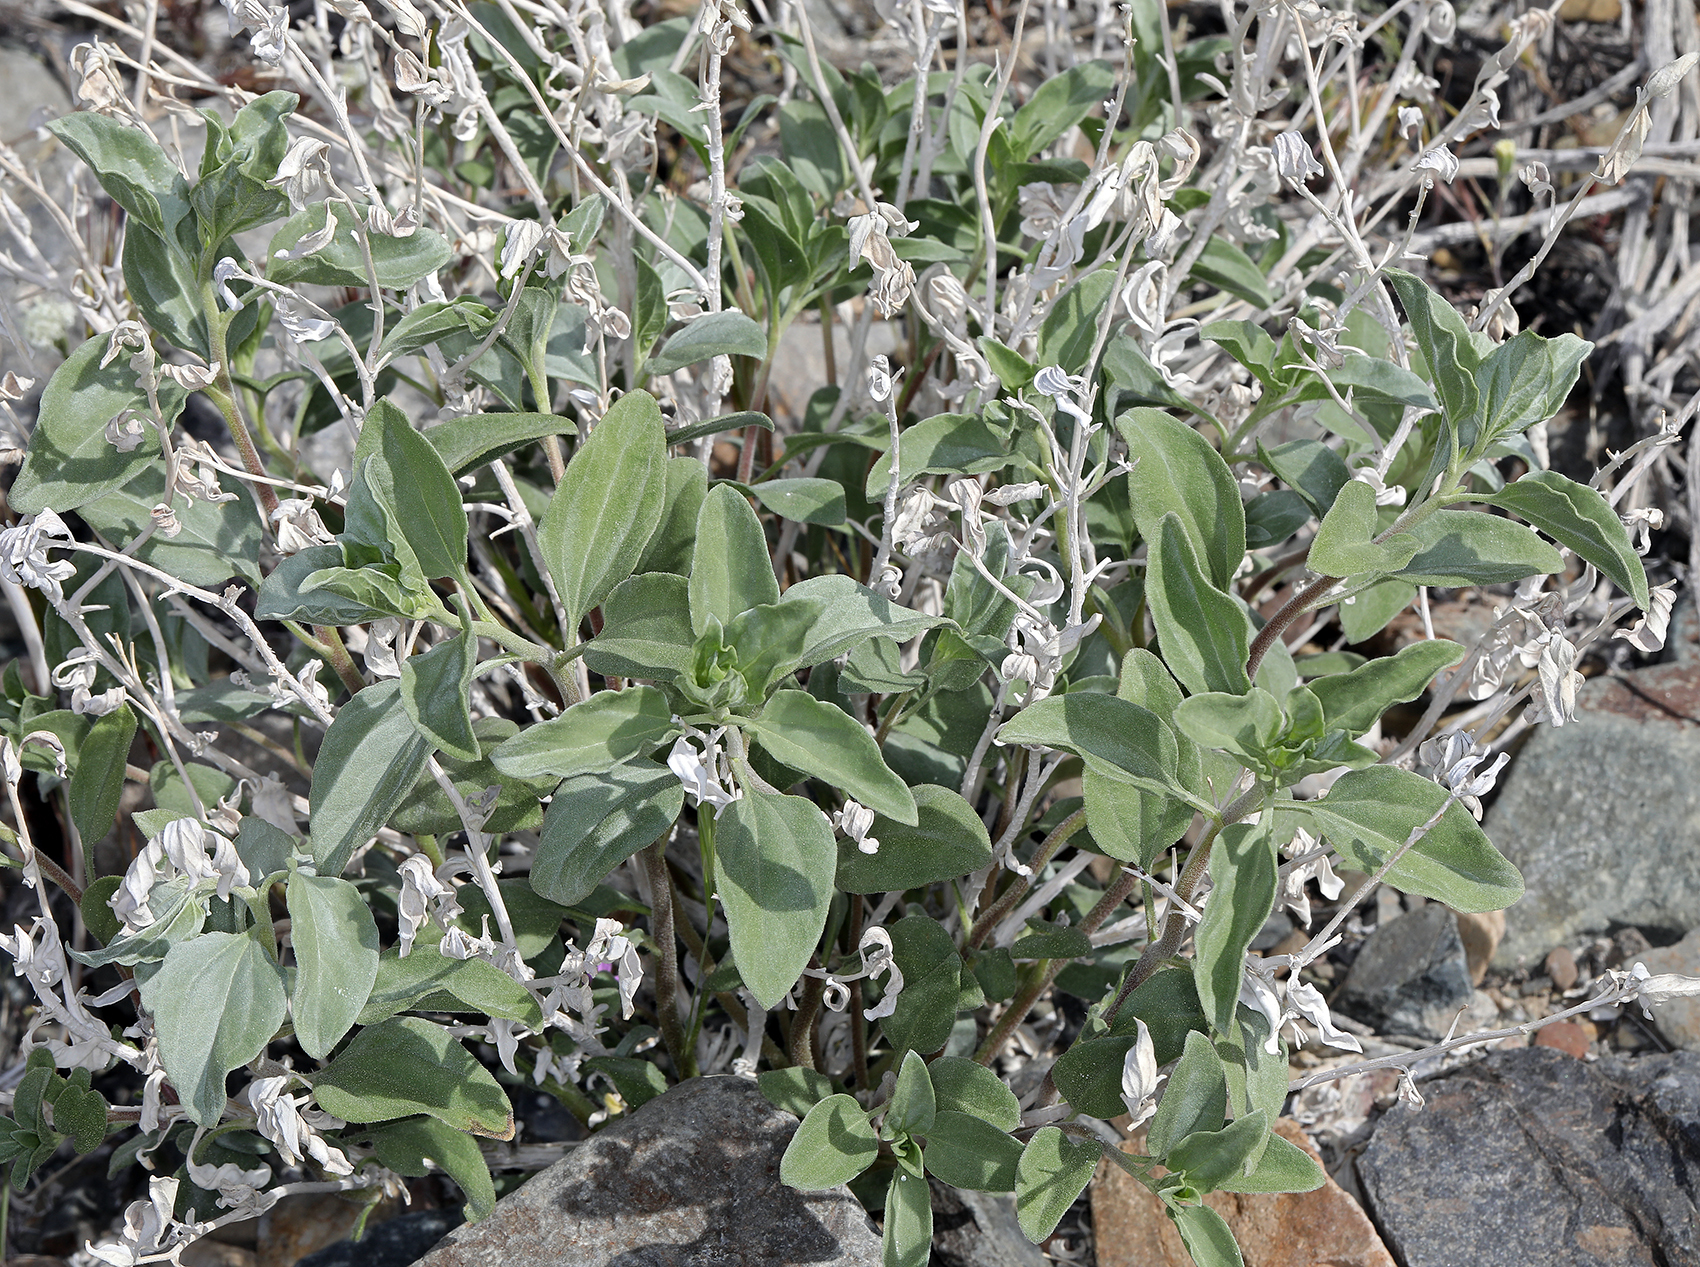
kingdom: Plantae
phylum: Tracheophyta
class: Magnoliopsida
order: Asterales
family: Asteraceae
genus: Encelia
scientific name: Encelia actoni
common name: Acton encelia
